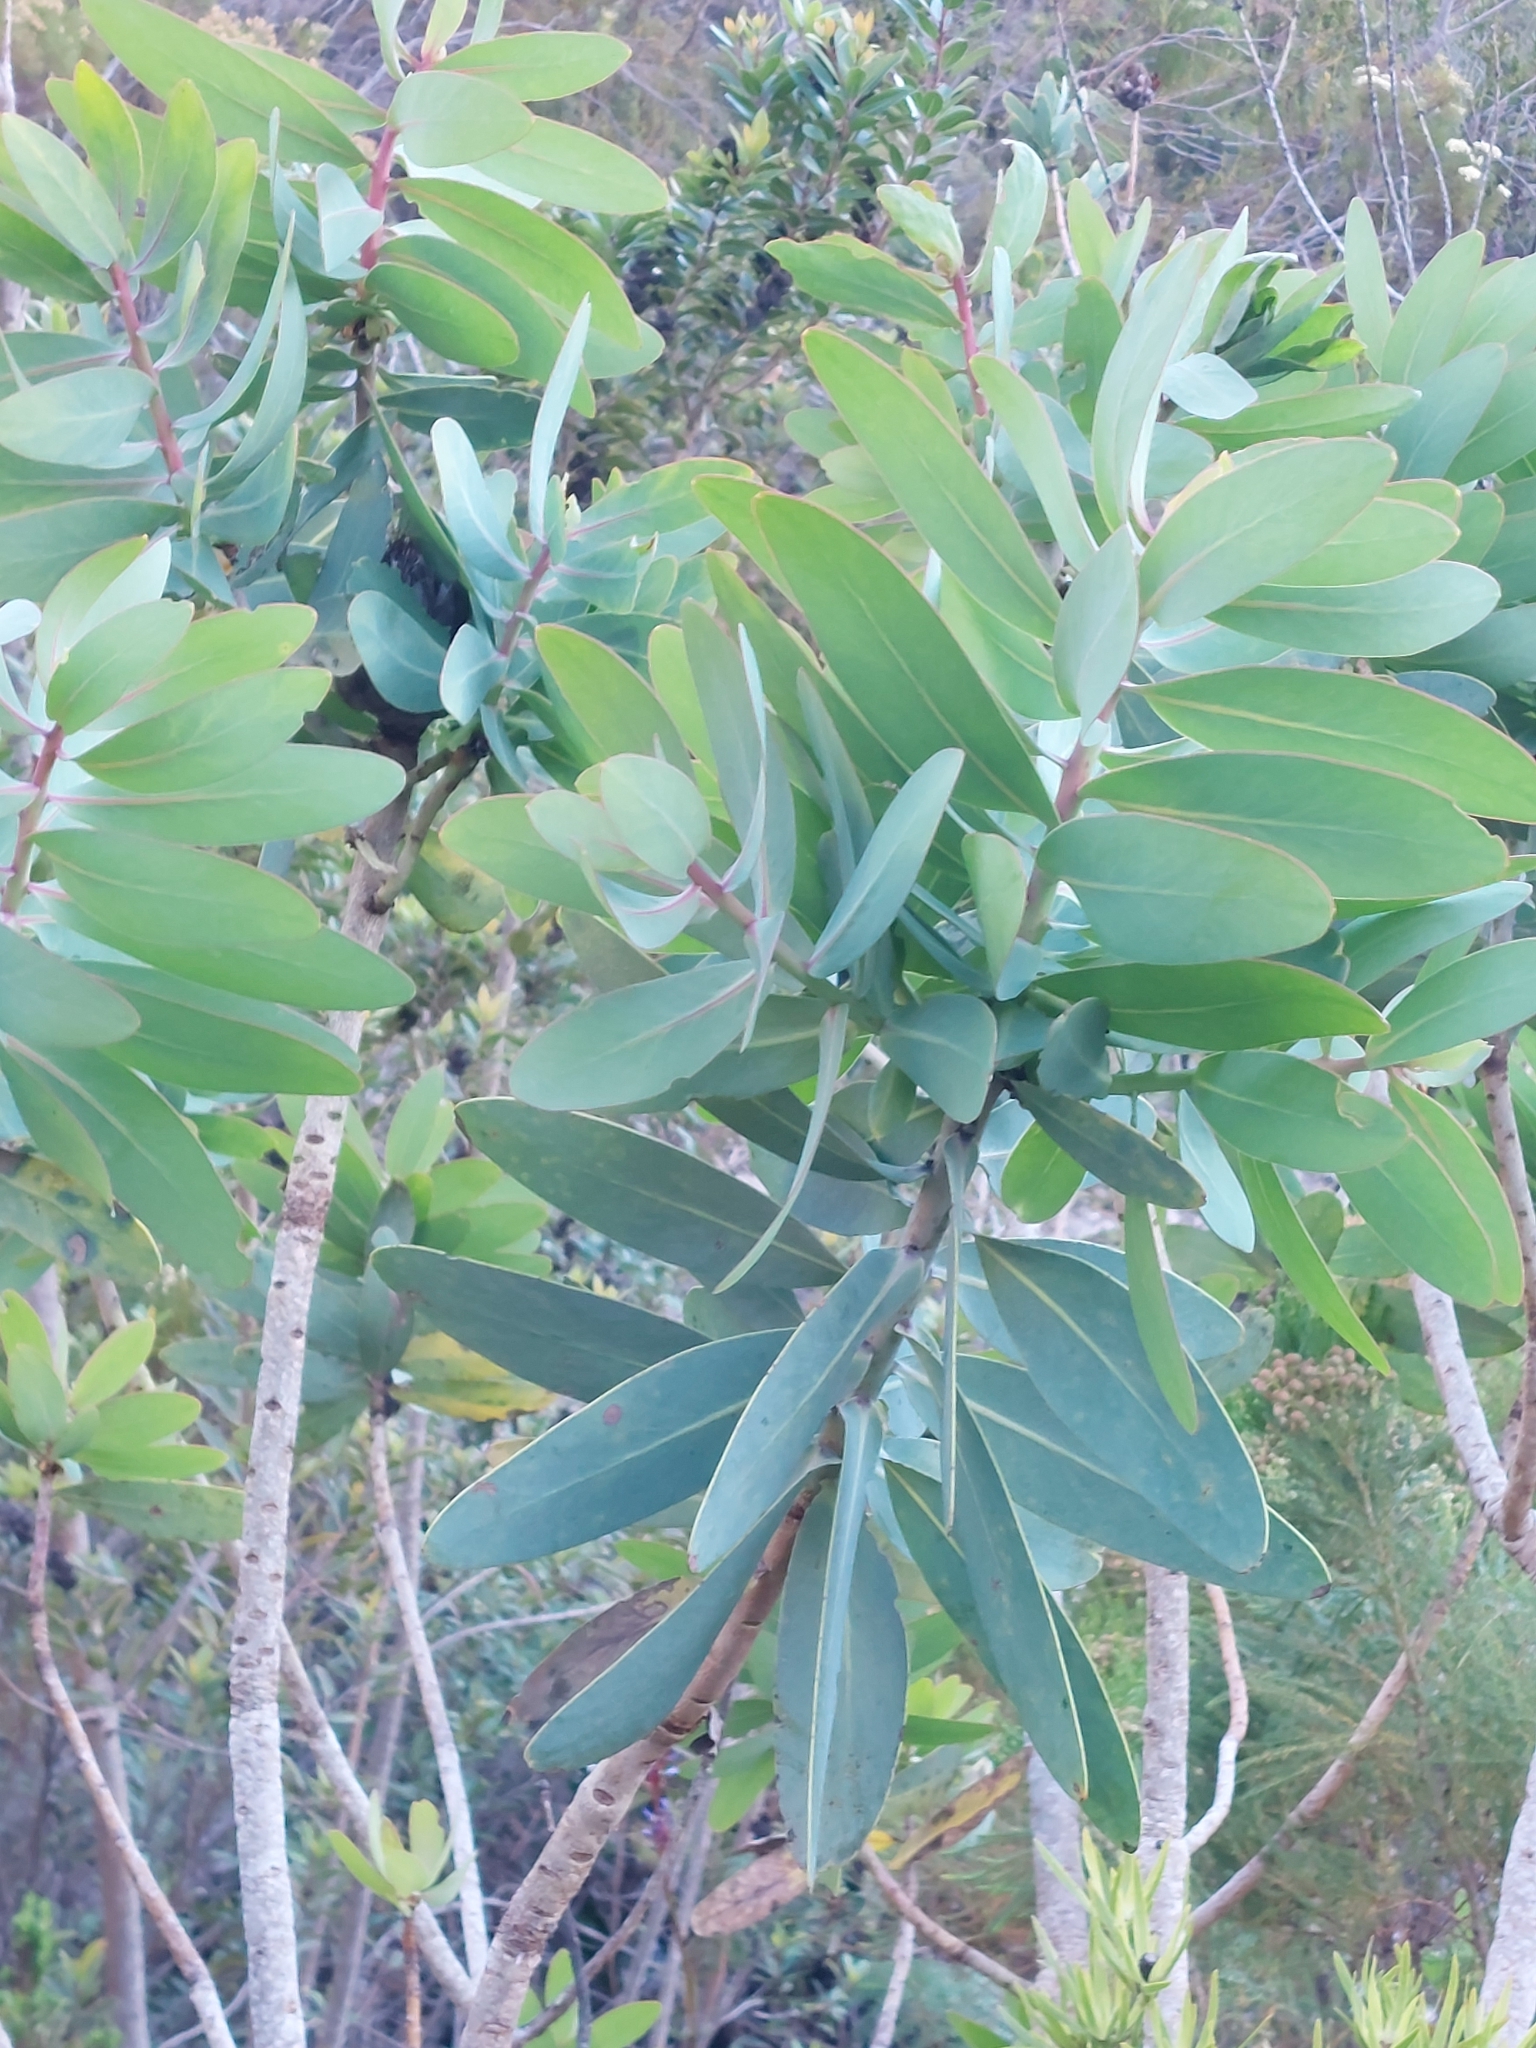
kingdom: Plantae
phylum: Tracheophyta
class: Magnoliopsida
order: Proteales
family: Proteaceae
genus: Protea
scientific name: Protea nitida
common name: Tree protea
